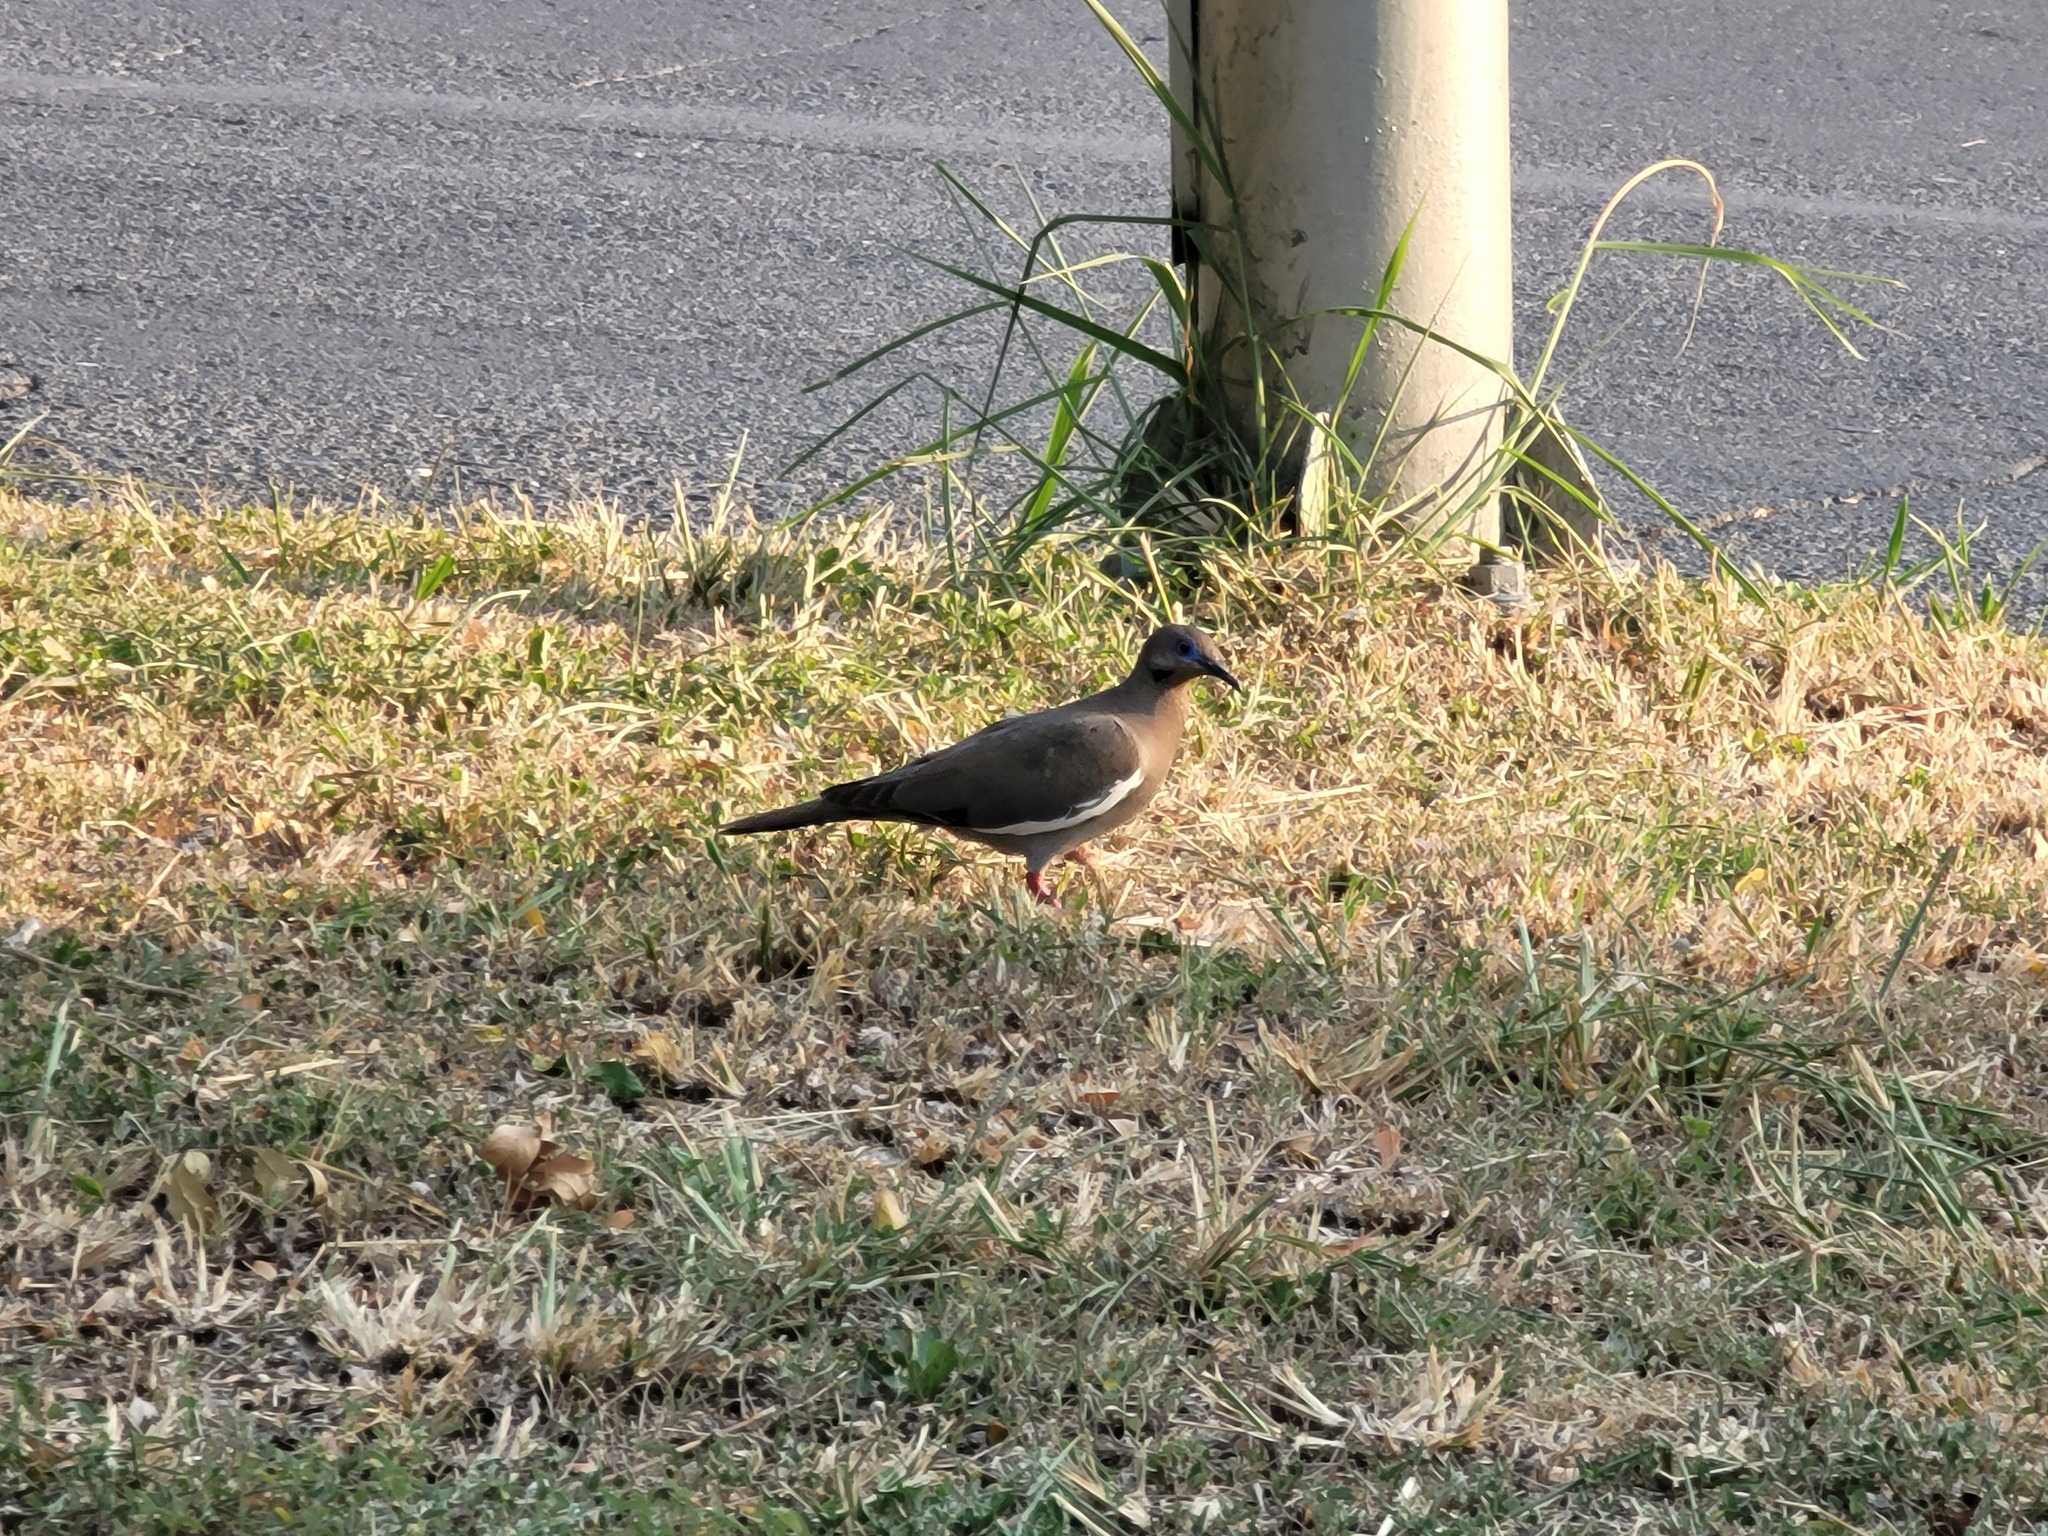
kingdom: Animalia
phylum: Chordata
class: Aves
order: Columbiformes
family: Columbidae
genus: Zenaida
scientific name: Zenaida asiatica
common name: White-winged dove
